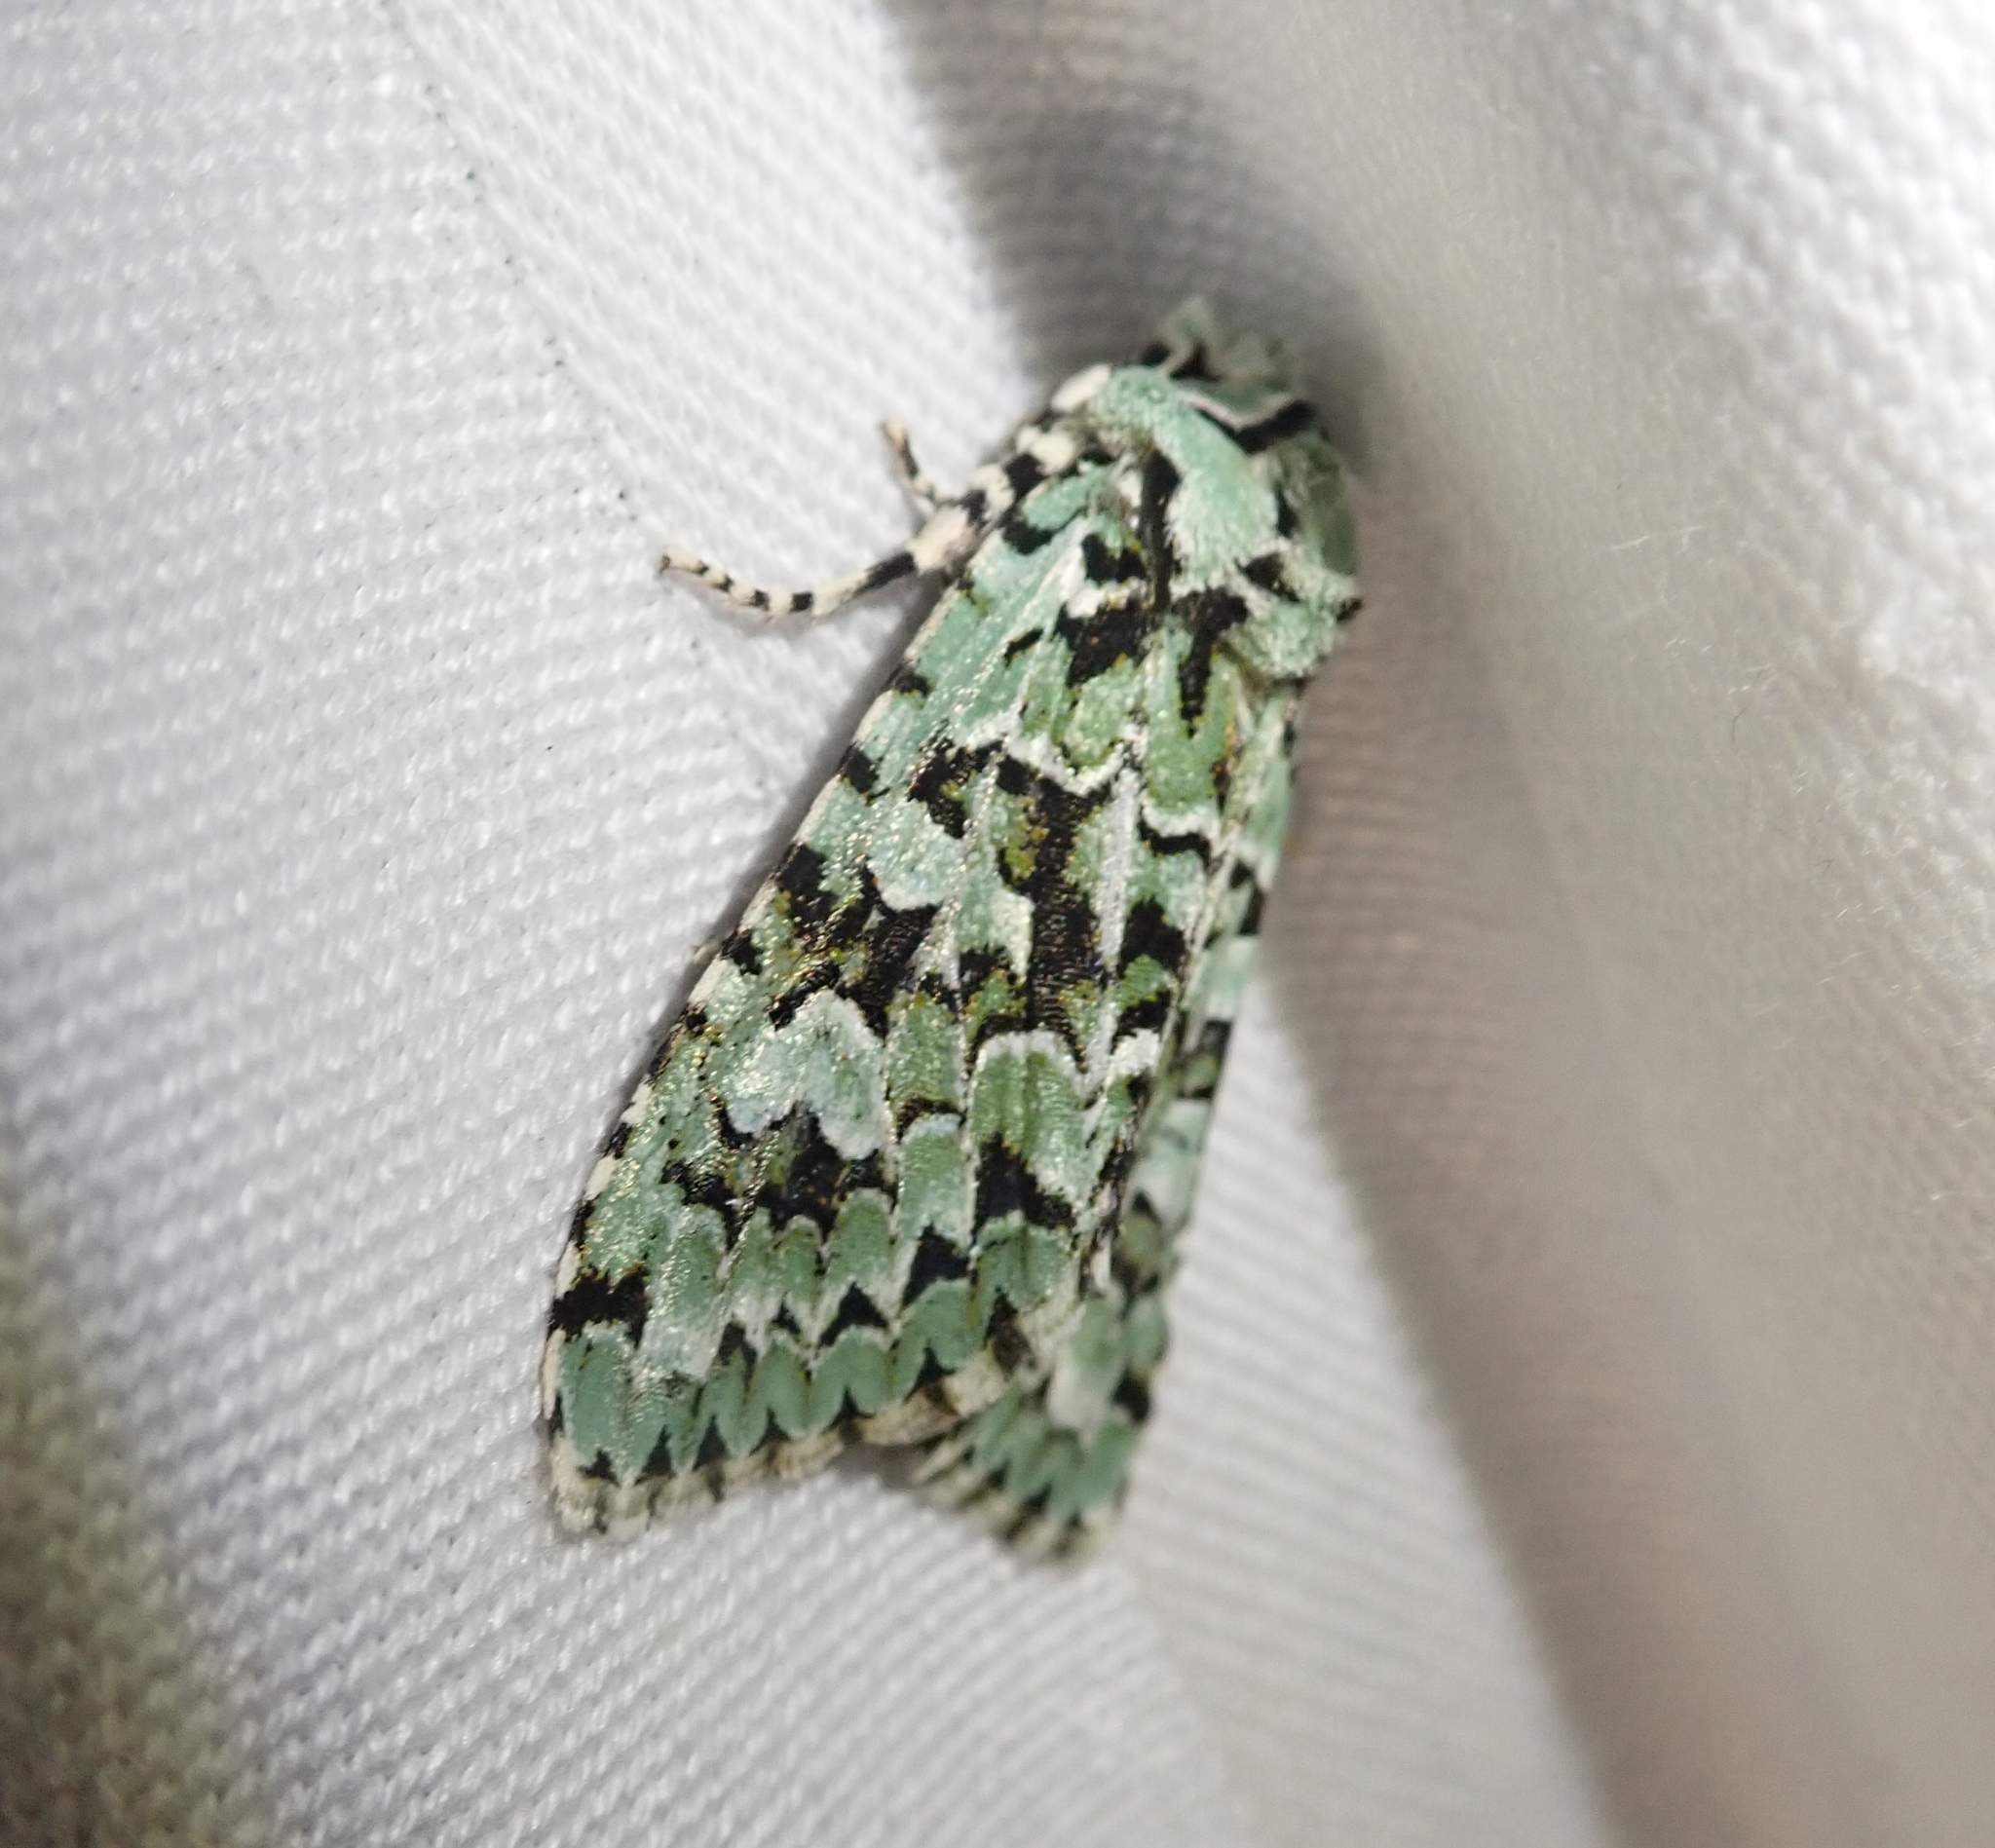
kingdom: Animalia
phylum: Arthropoda
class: Insecta
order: Lepidoptera
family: Noctuidae
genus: Griposia
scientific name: Griposia aprilina
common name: Merveille du jour
